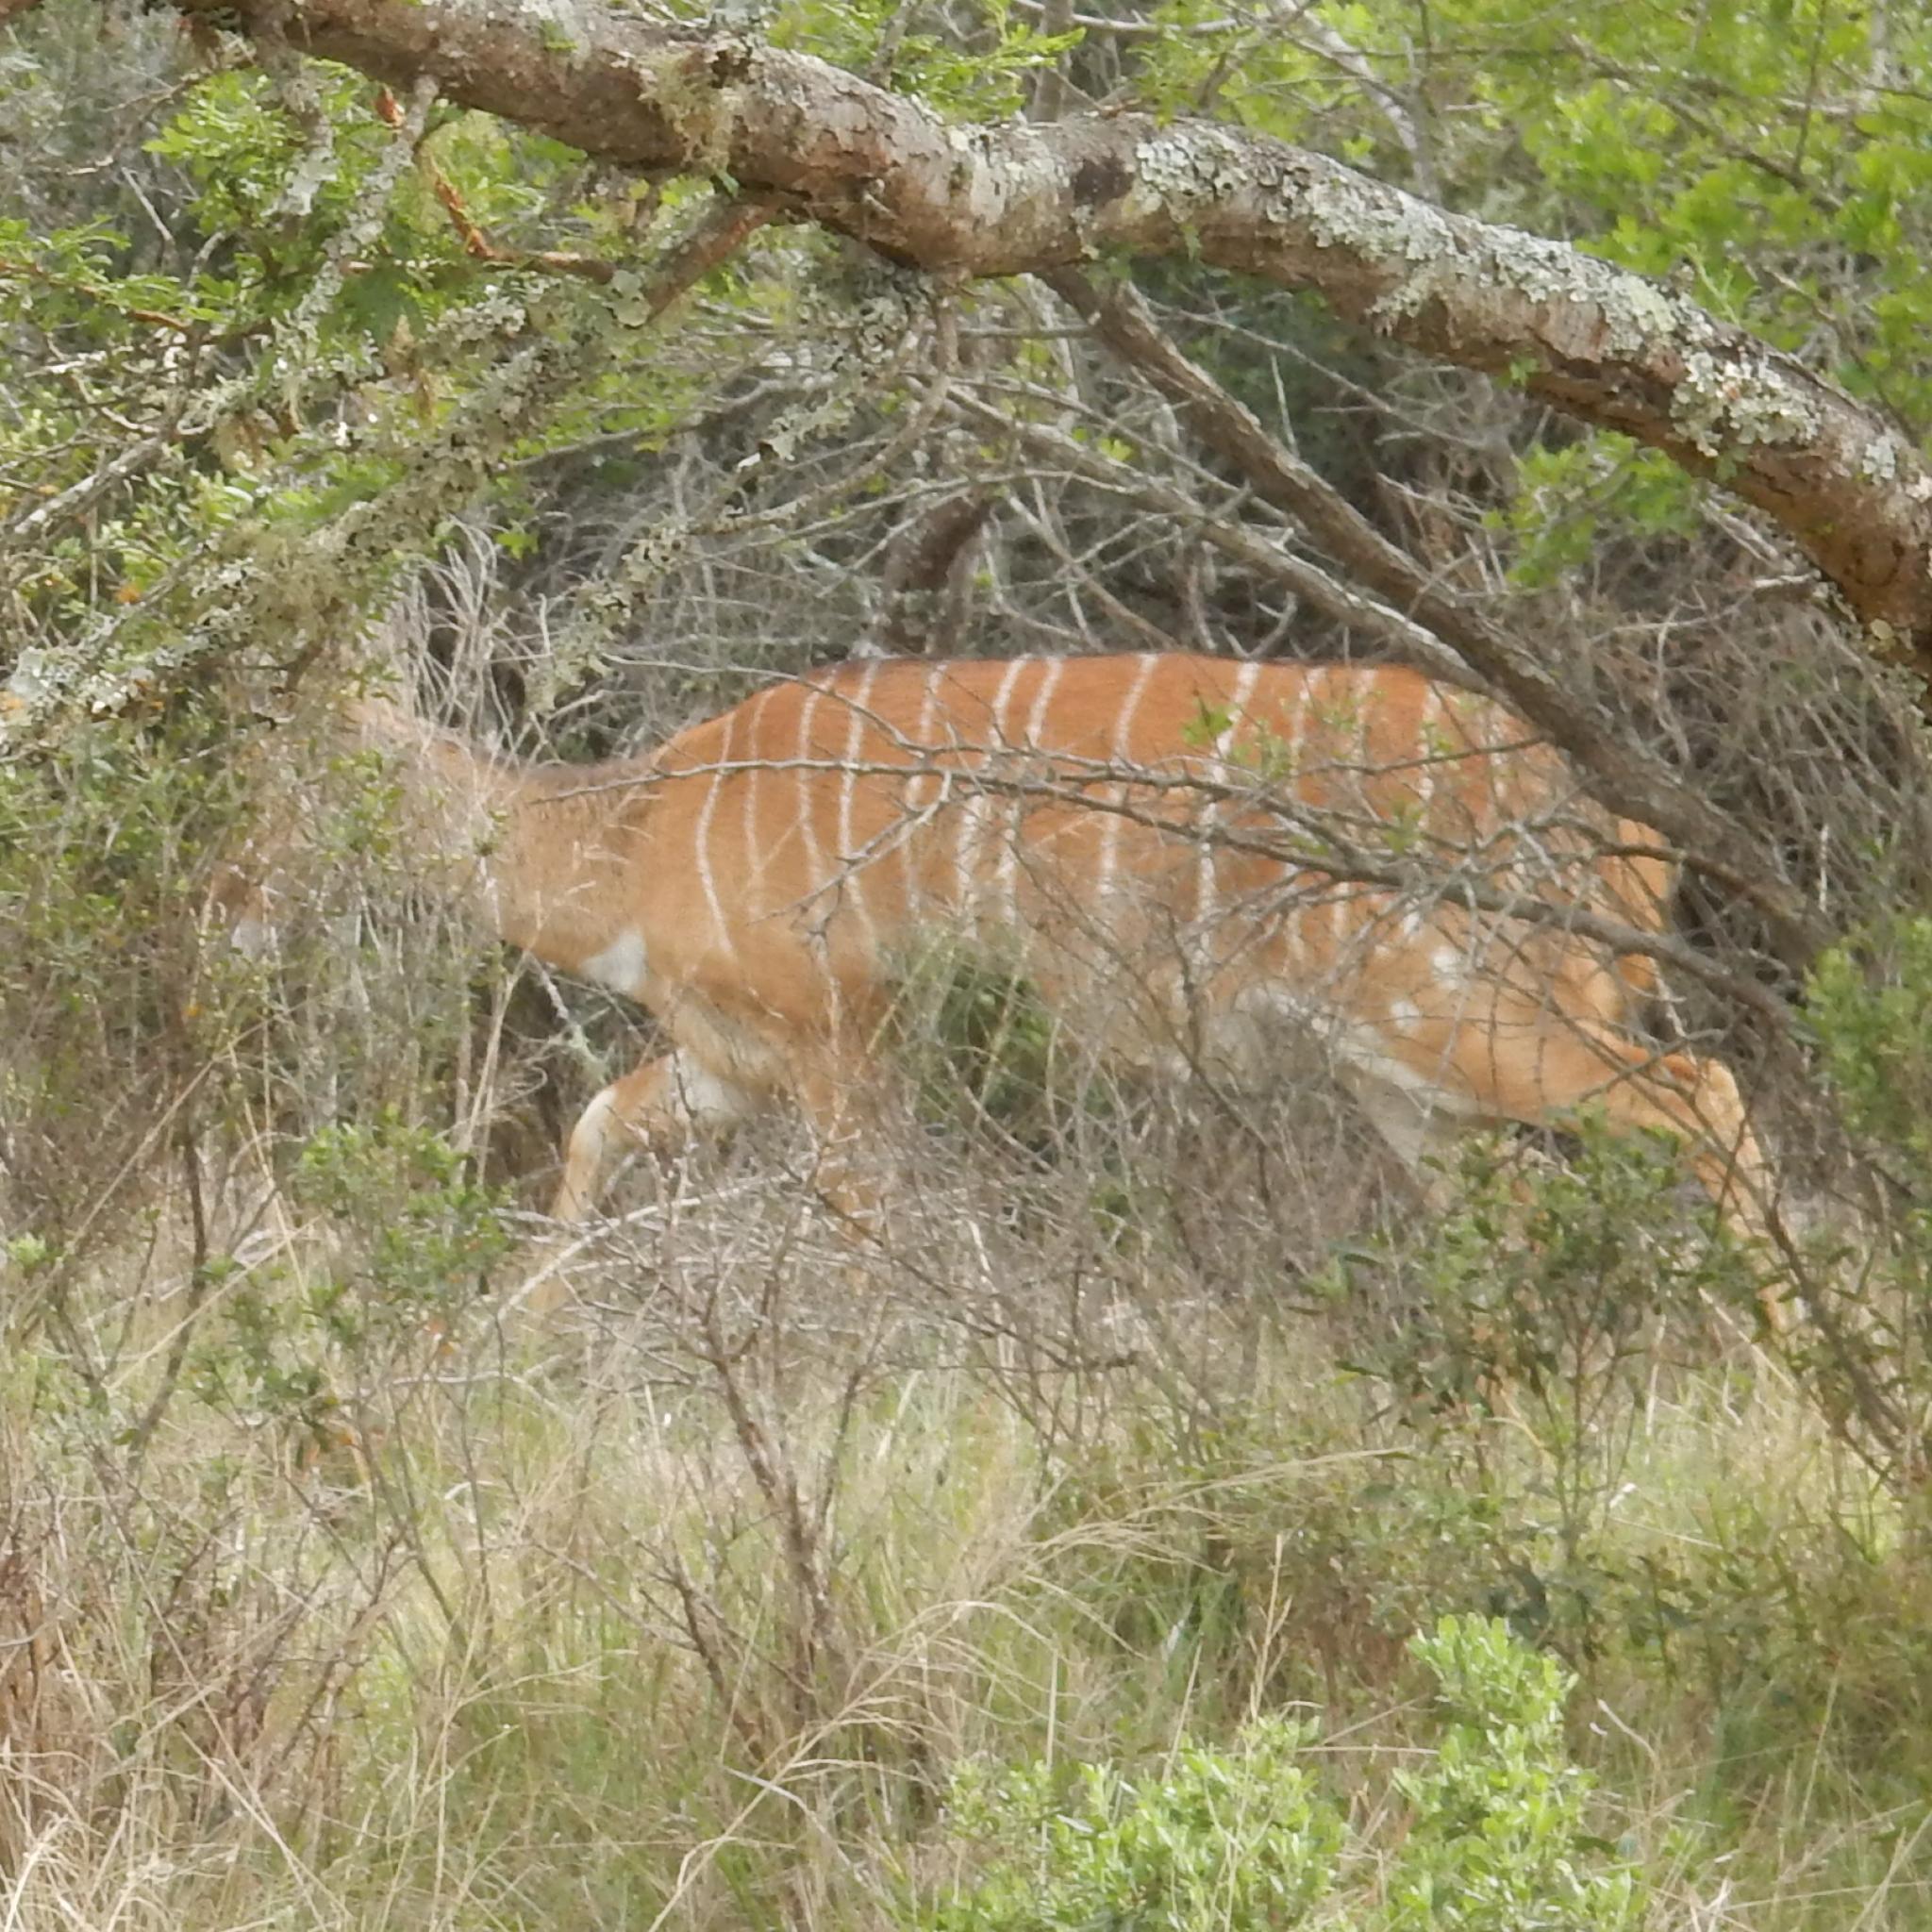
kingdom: Animalia
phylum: Chordata
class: Mammalia
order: Artiodactyla
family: Bovidae
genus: Tragelaphus
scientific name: Tragelaphus angasii
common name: Nyala
